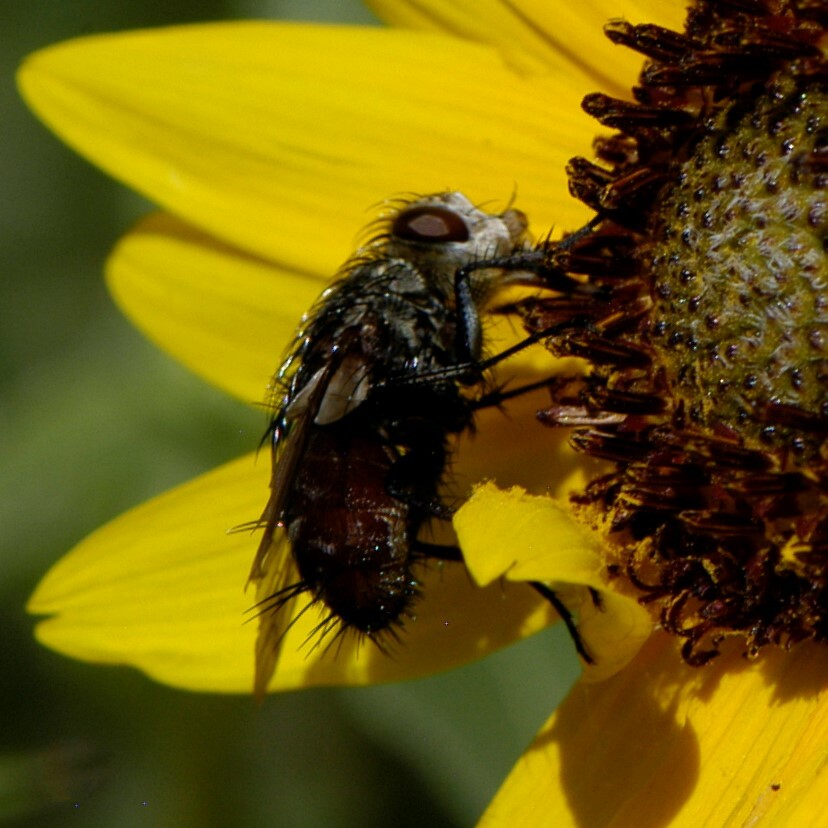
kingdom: Animalia
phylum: Arthropoda
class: Insecta
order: Diptera
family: Tachinidae
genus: Peleteria
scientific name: Peleteria
